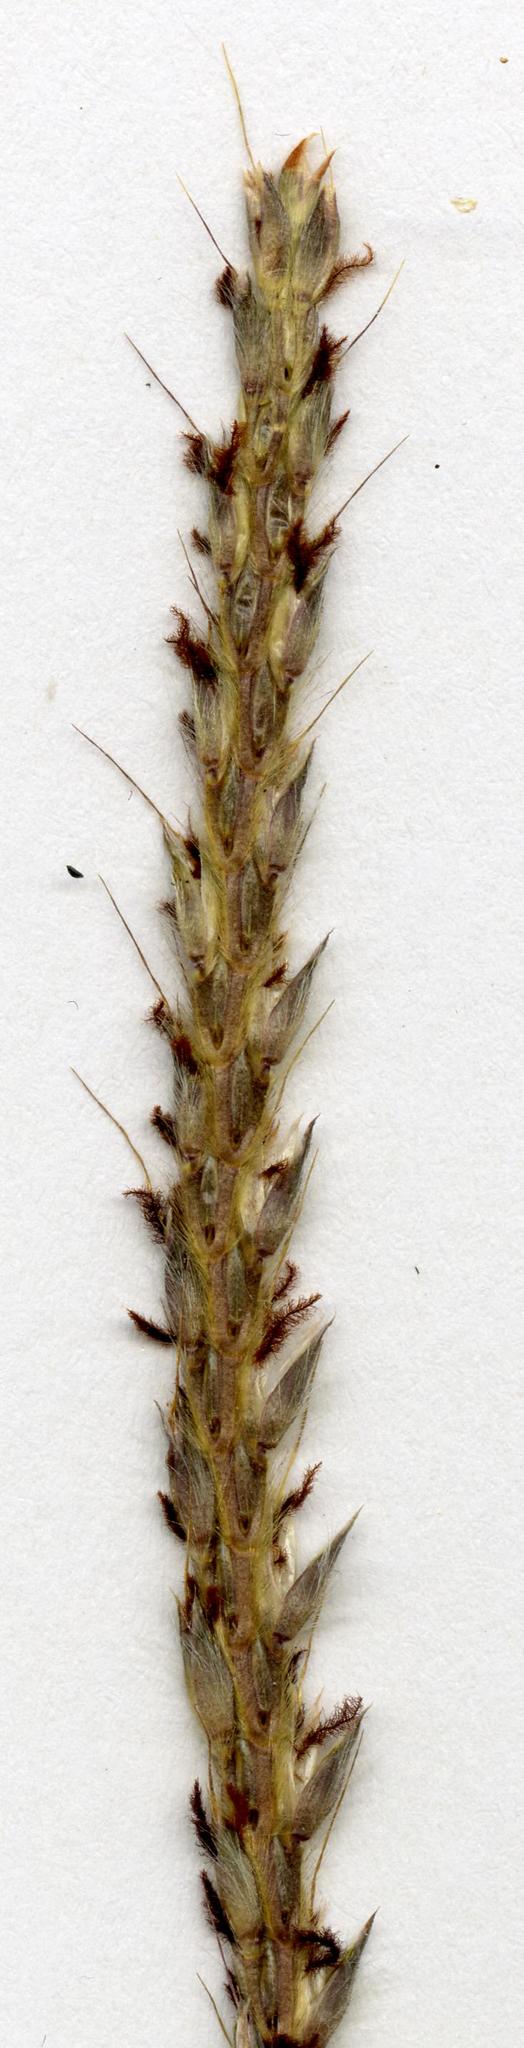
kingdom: Plantae
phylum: Tracheophyta
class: Liliopsida
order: Poales
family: Poaceae
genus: Ischaemum
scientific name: Ischaemum polystachyum
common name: Paddle grass
